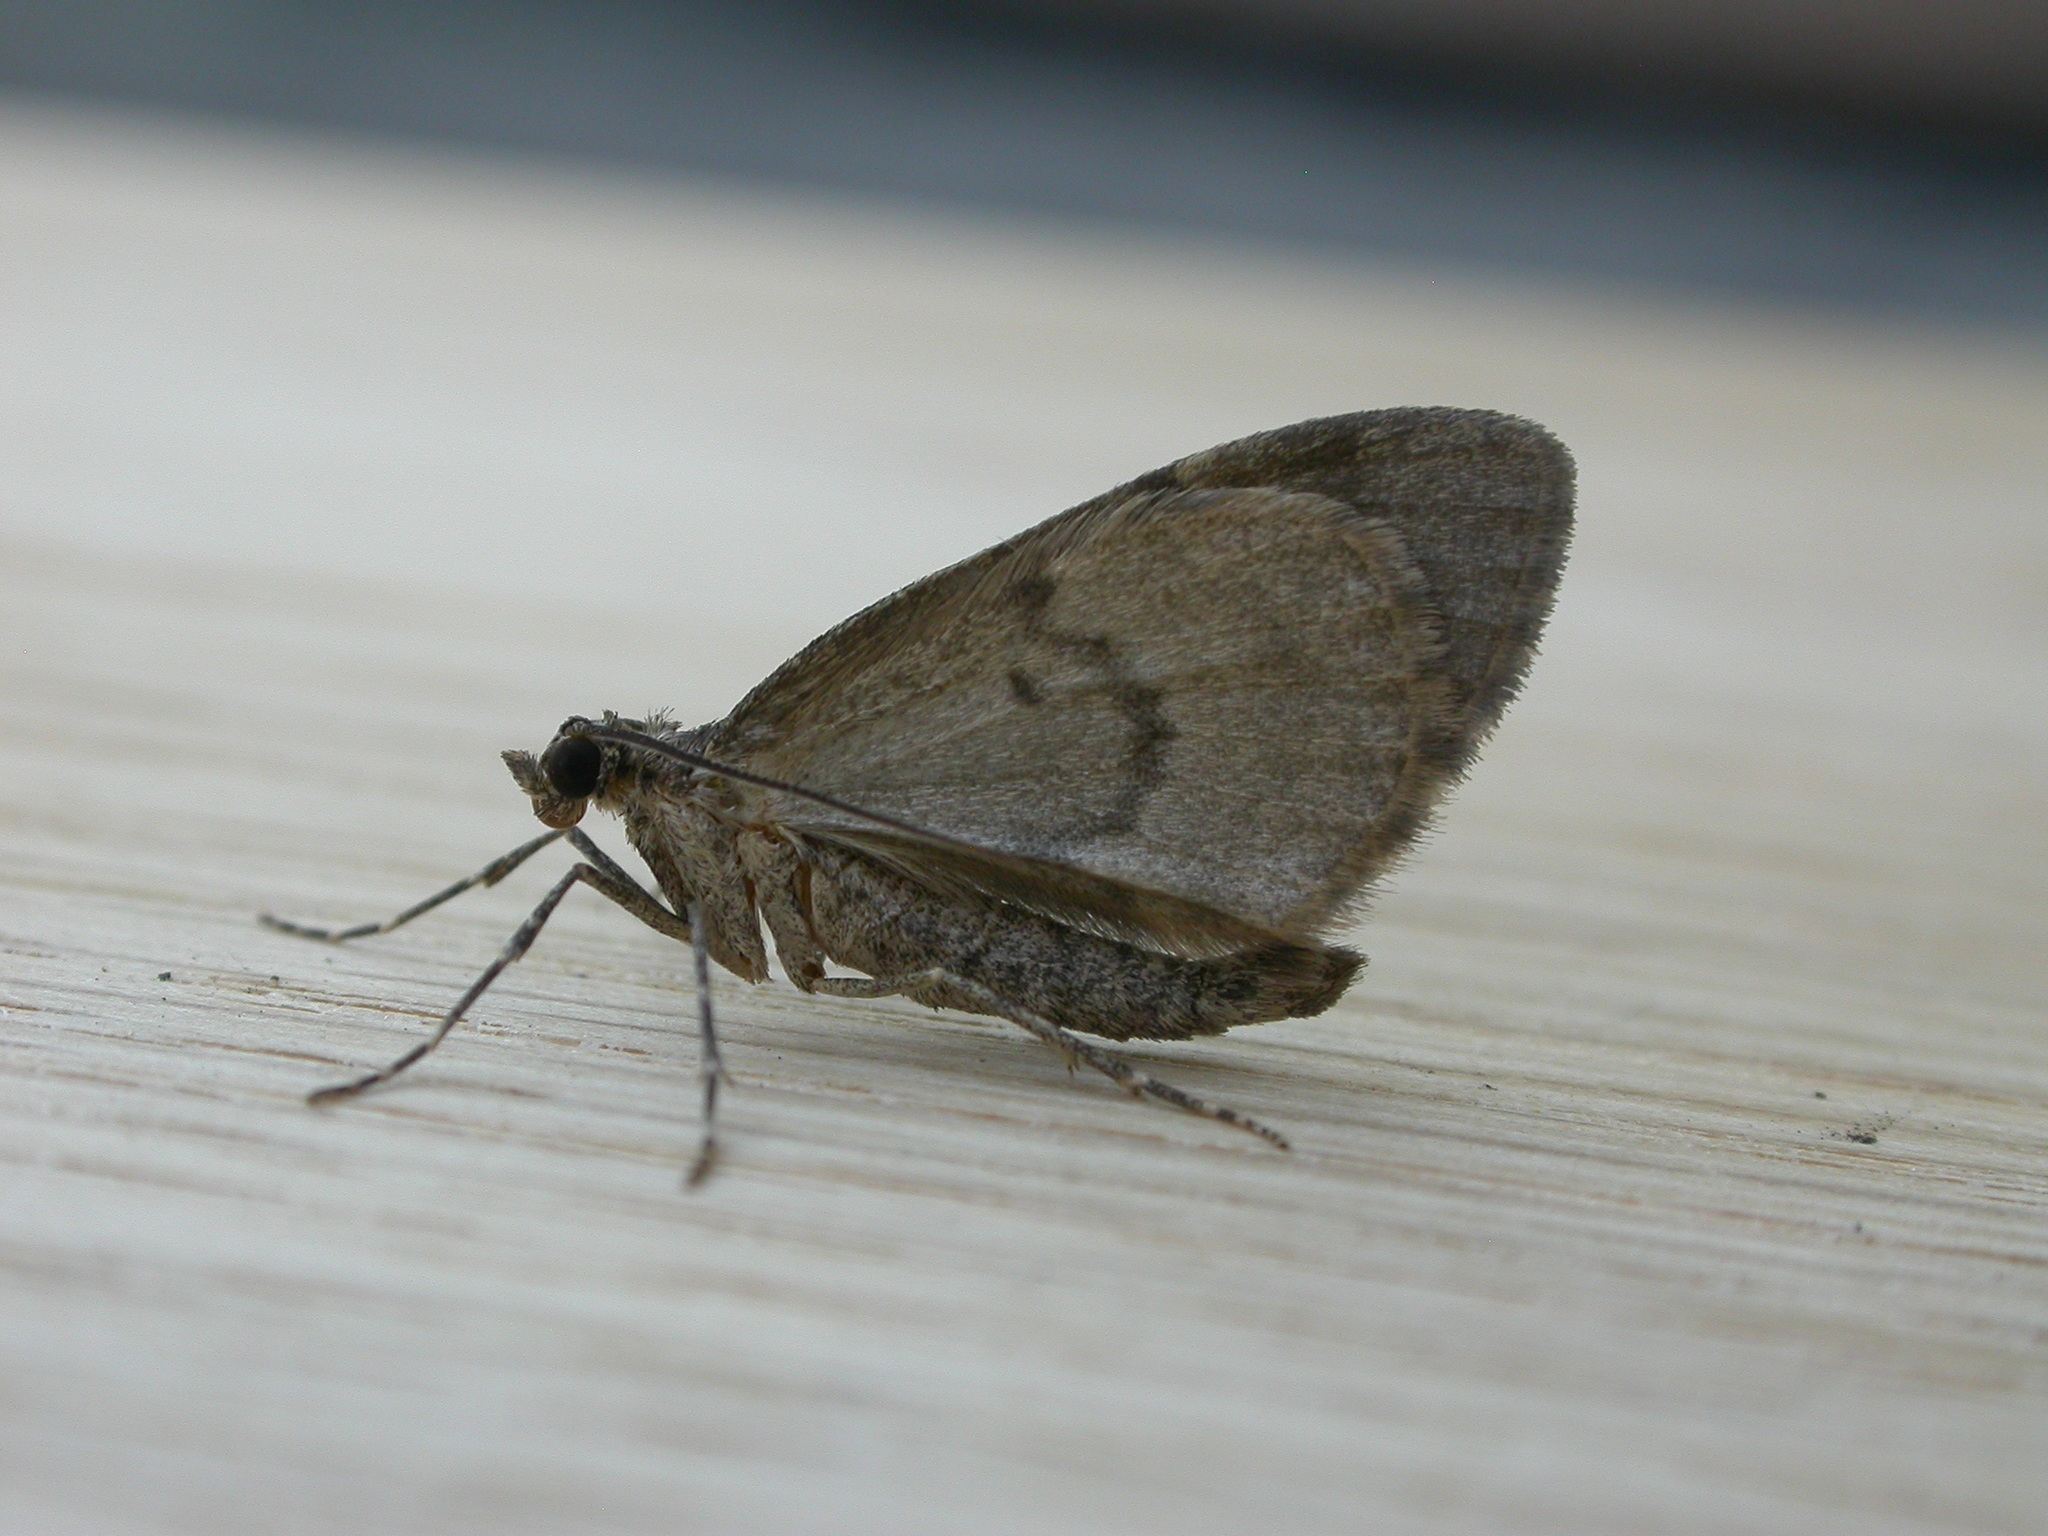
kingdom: Animalia
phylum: Arthropoda
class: Insecta
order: Lepidoptera
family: Geometridae
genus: Hydriomena
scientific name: Hydriomena impluviata
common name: May highflyer
